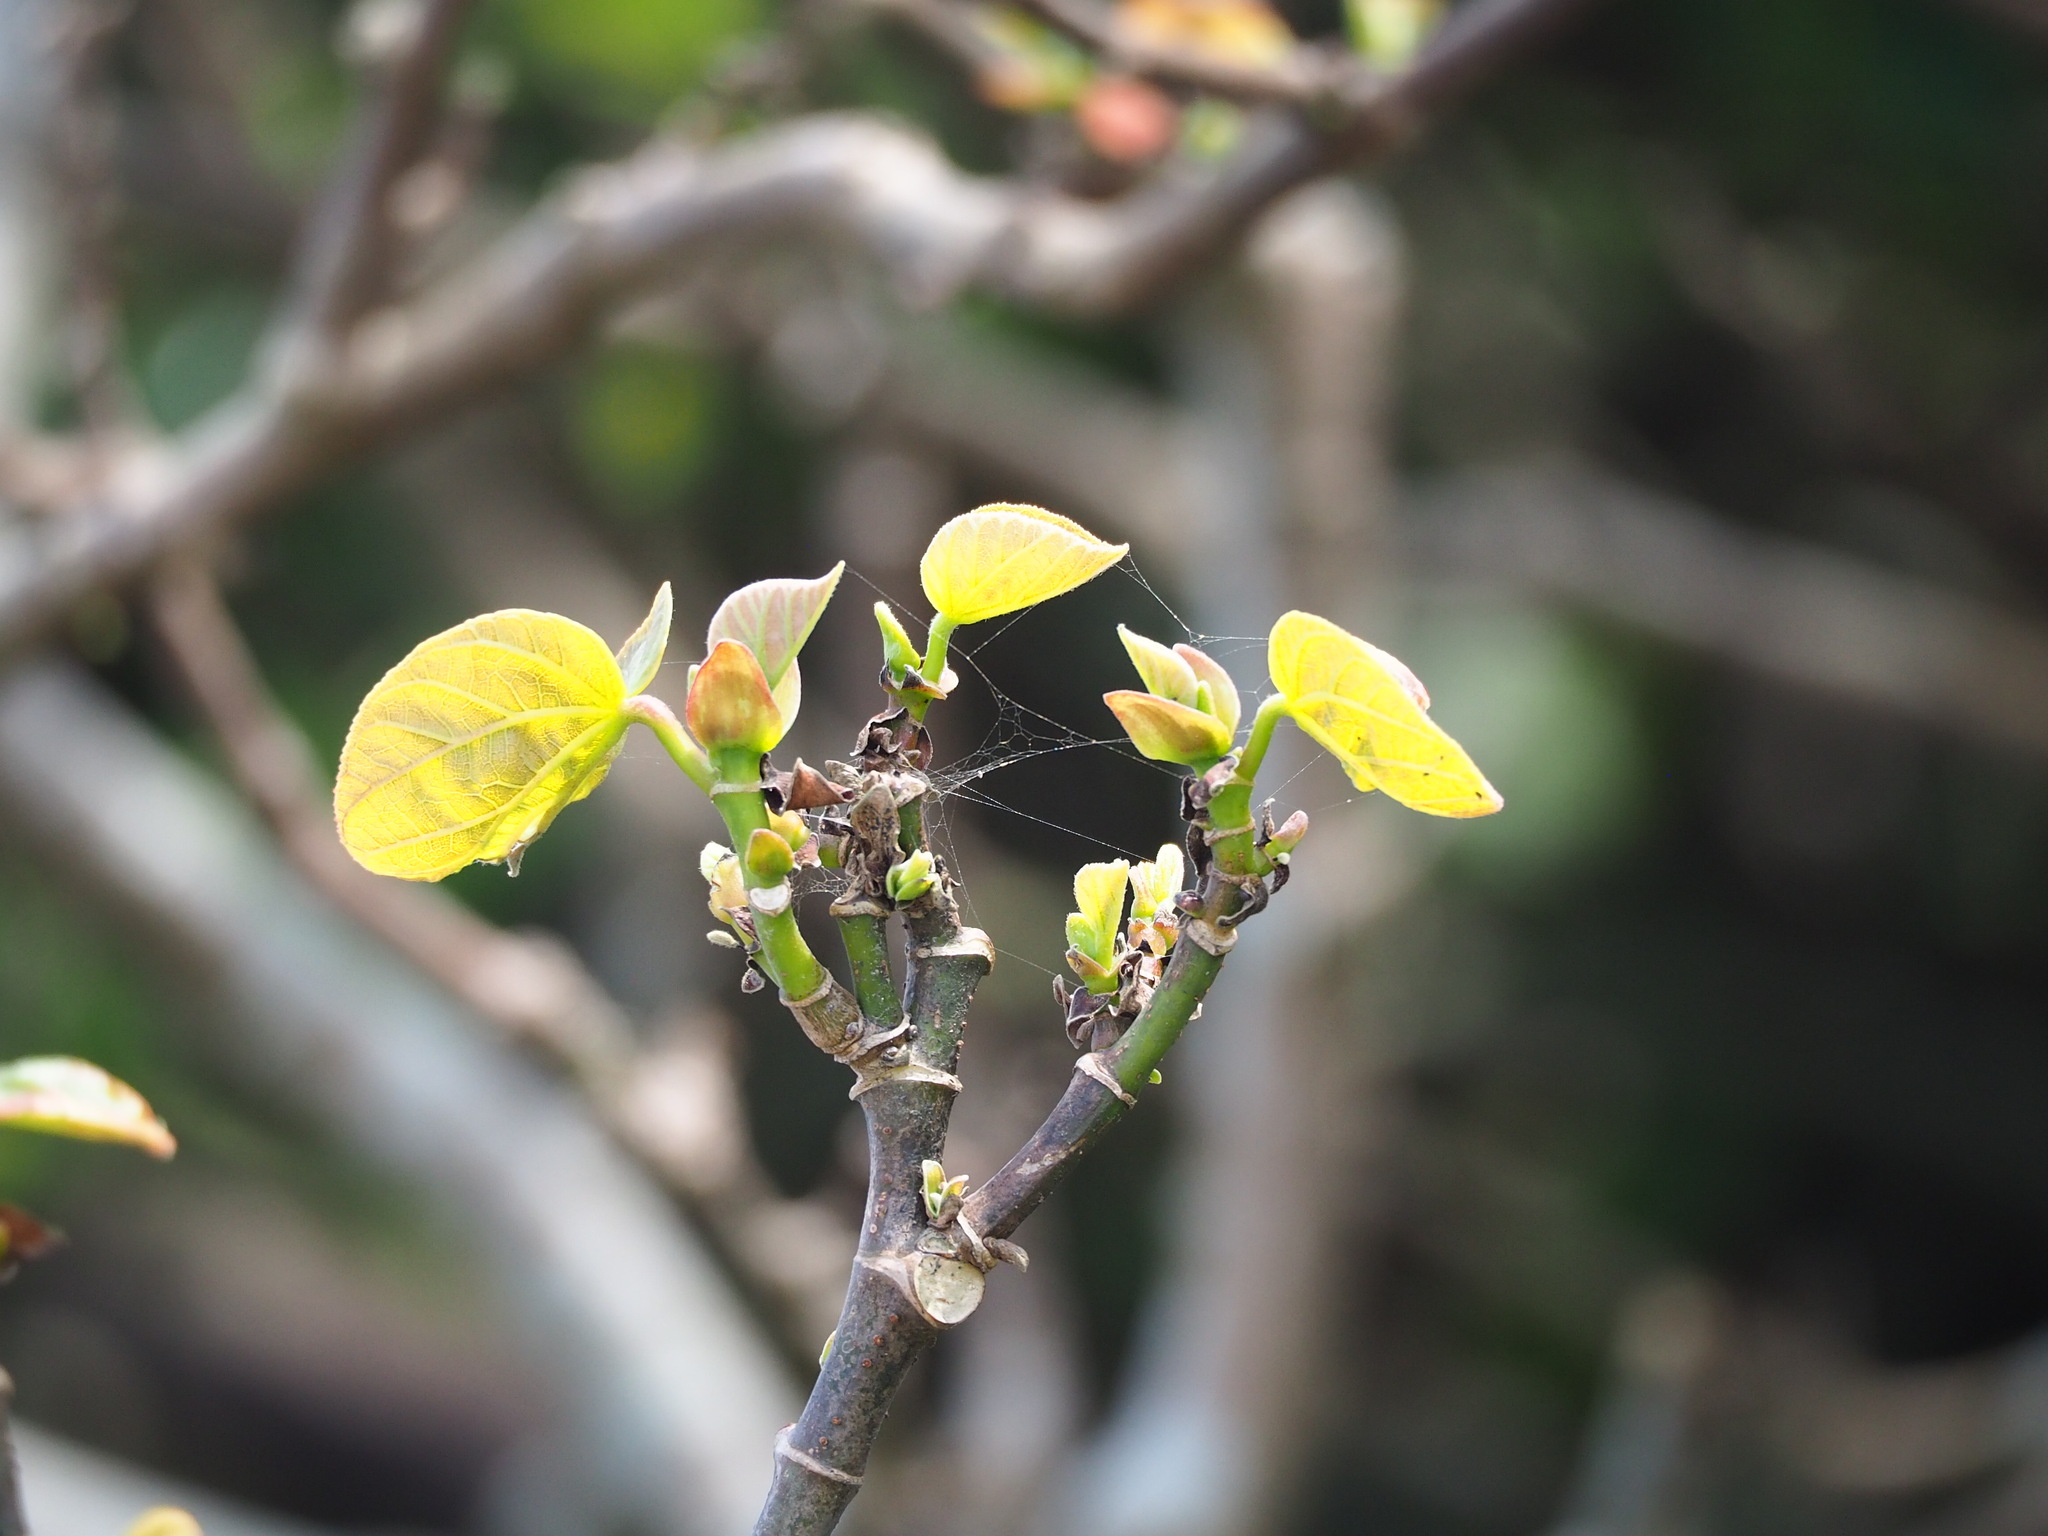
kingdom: Plantae
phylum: Tracheophyta
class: Magnoliopsida
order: Malvales
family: Malvaceae
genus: Talipariti
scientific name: Talipariti tiliaceum
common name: Sea hibiscus
